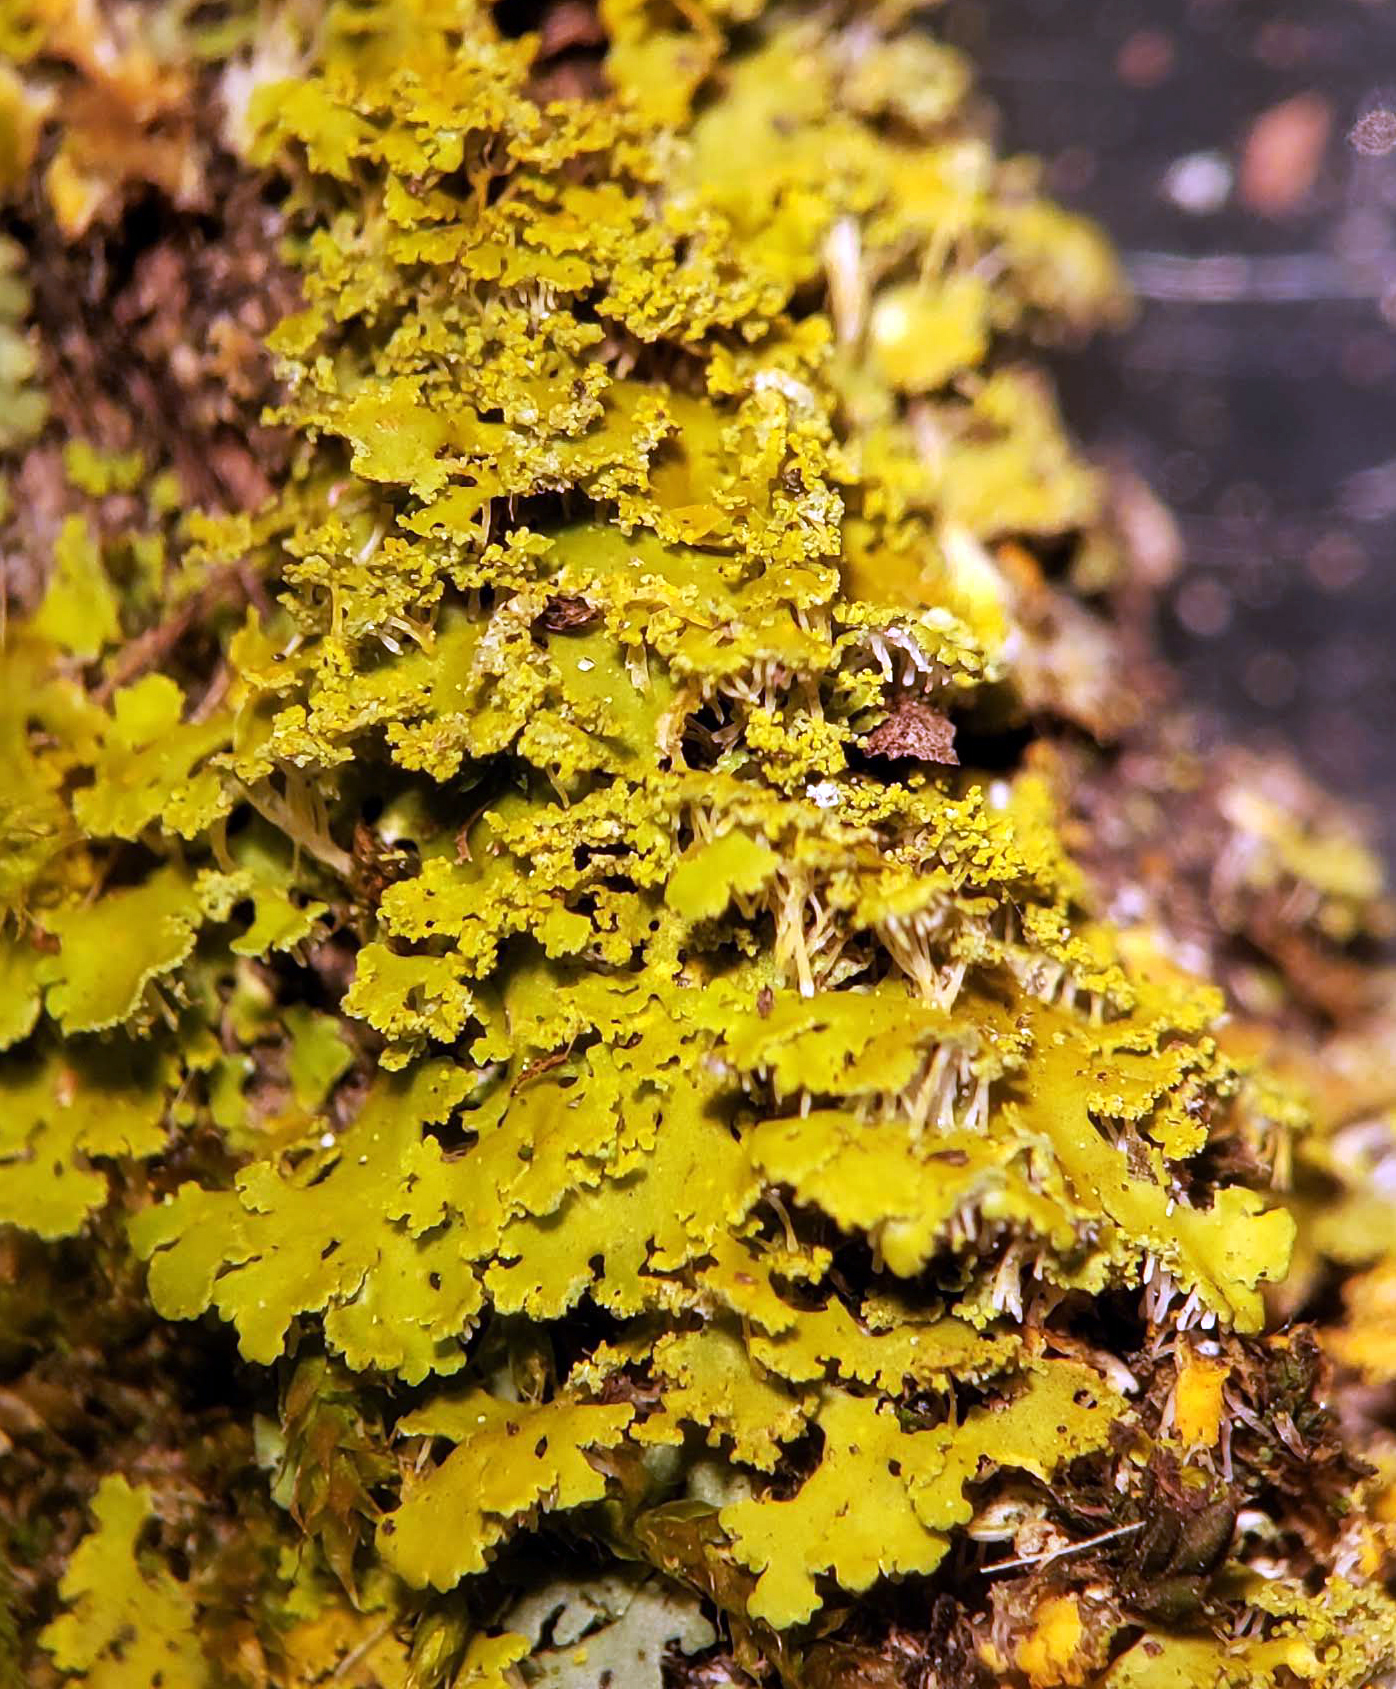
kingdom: Fungi
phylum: Ascomycota
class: Lecanoromycetes
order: Teloschistales
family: Teloschistaceae
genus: Xanthoria
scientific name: Xanthoria ulophyllodes
